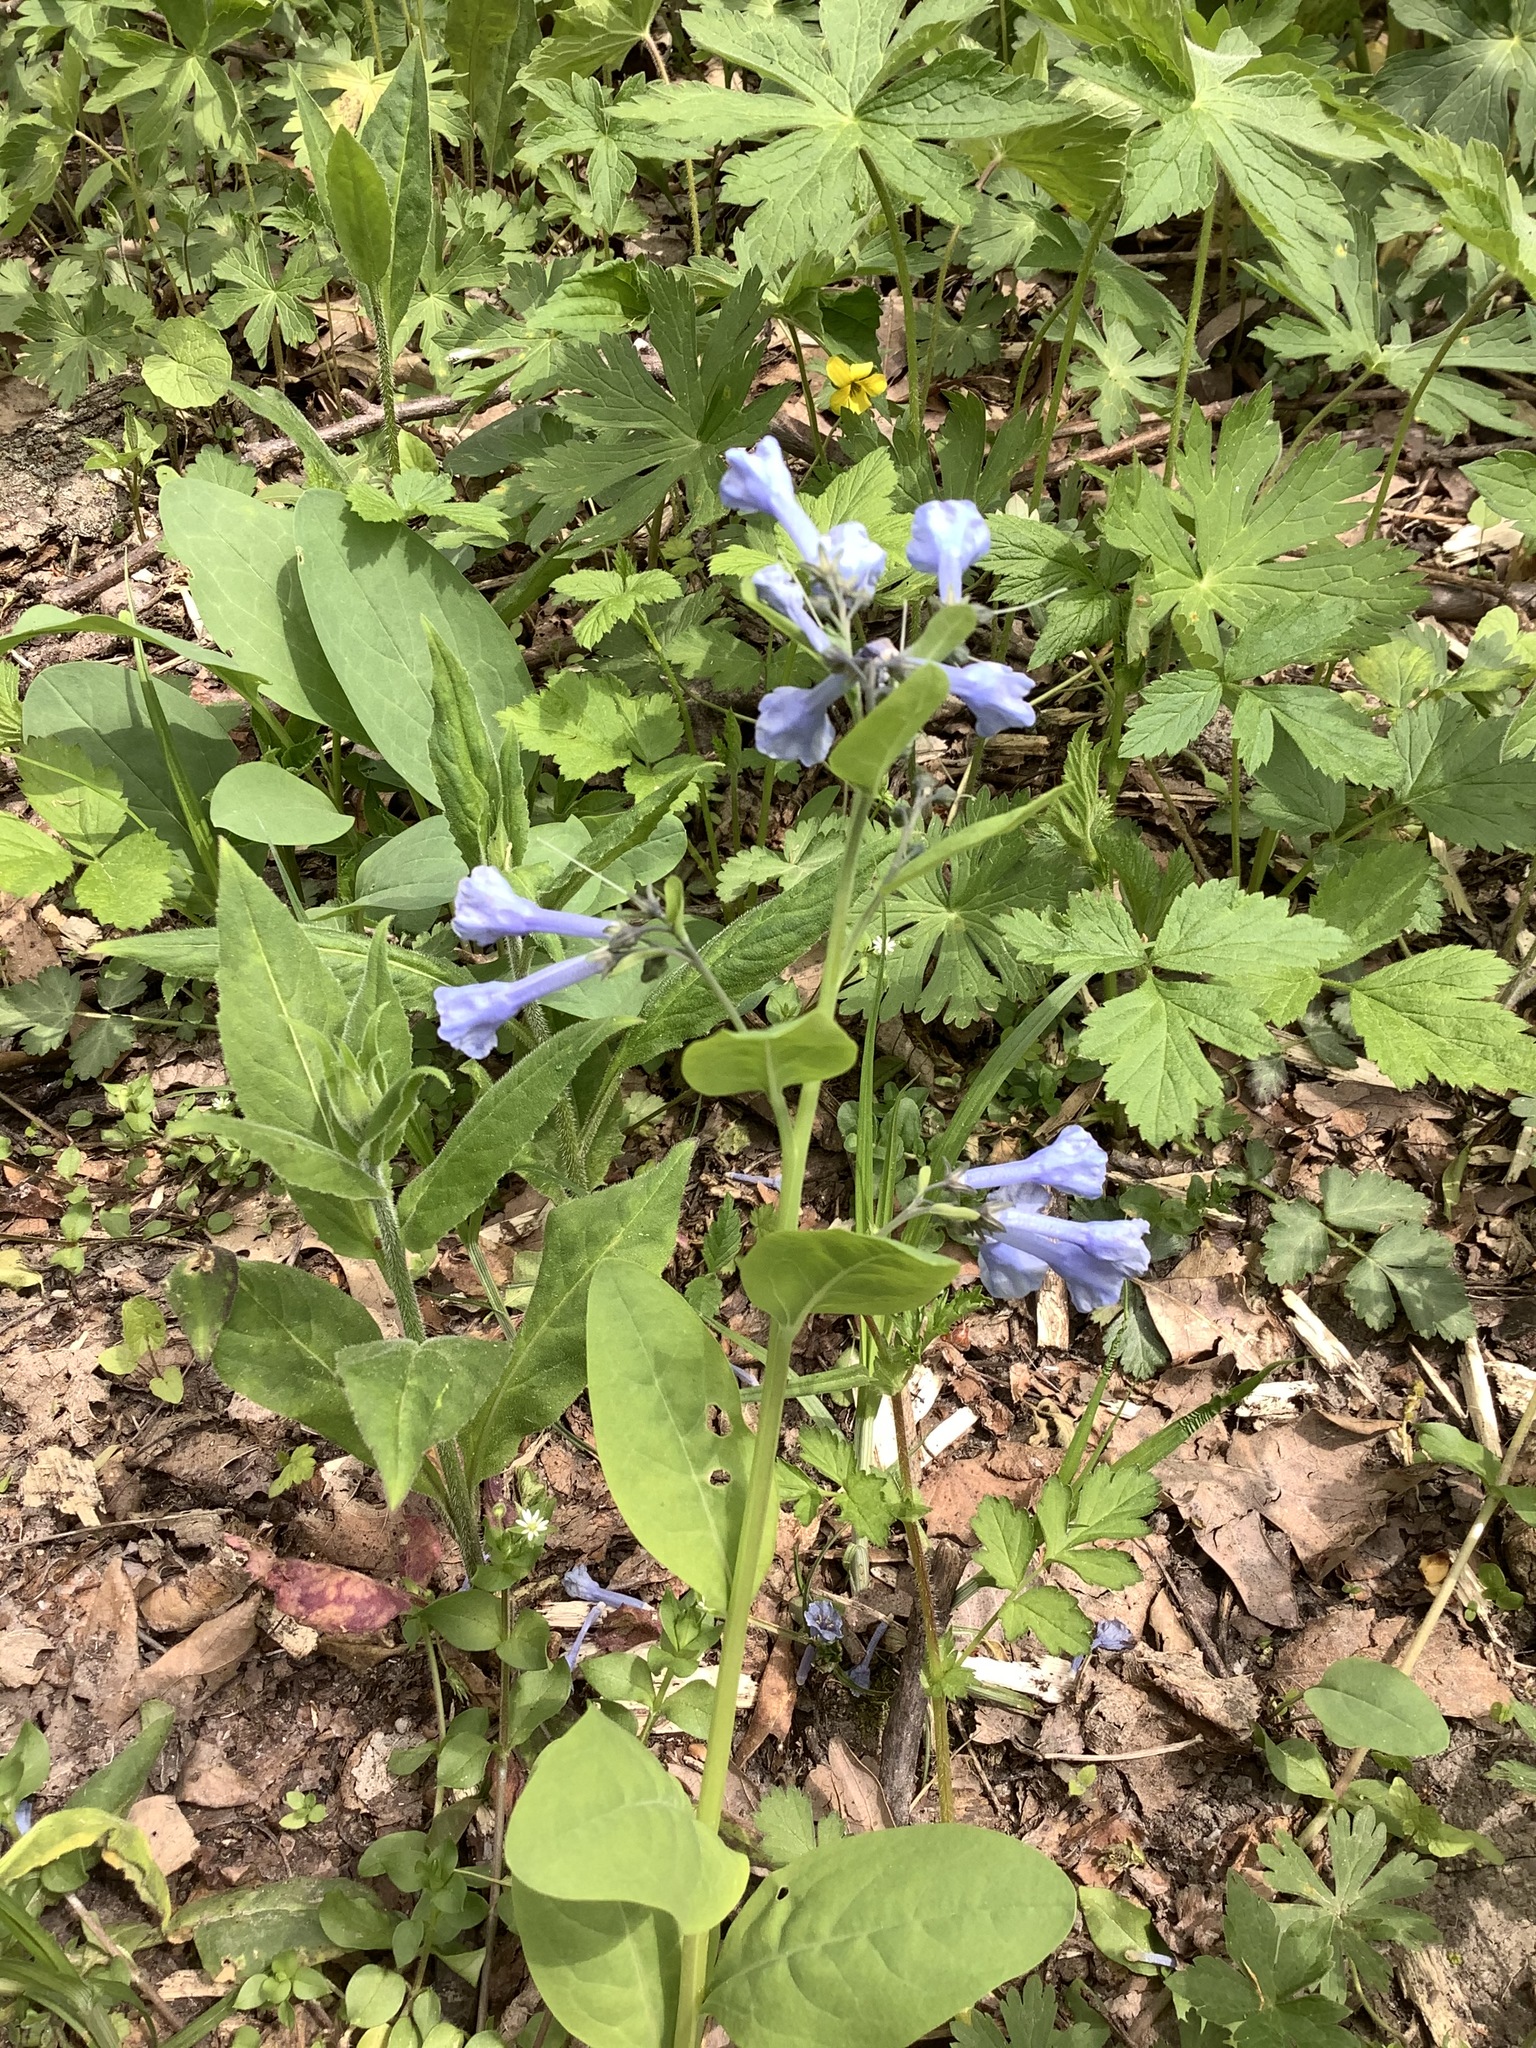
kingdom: Plantae
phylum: Tracheophyta
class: Magnoliopsida
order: Boraginales
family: Boraginaceae
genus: Mertensia
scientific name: Mertensia virginica
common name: Virginia bluebells
